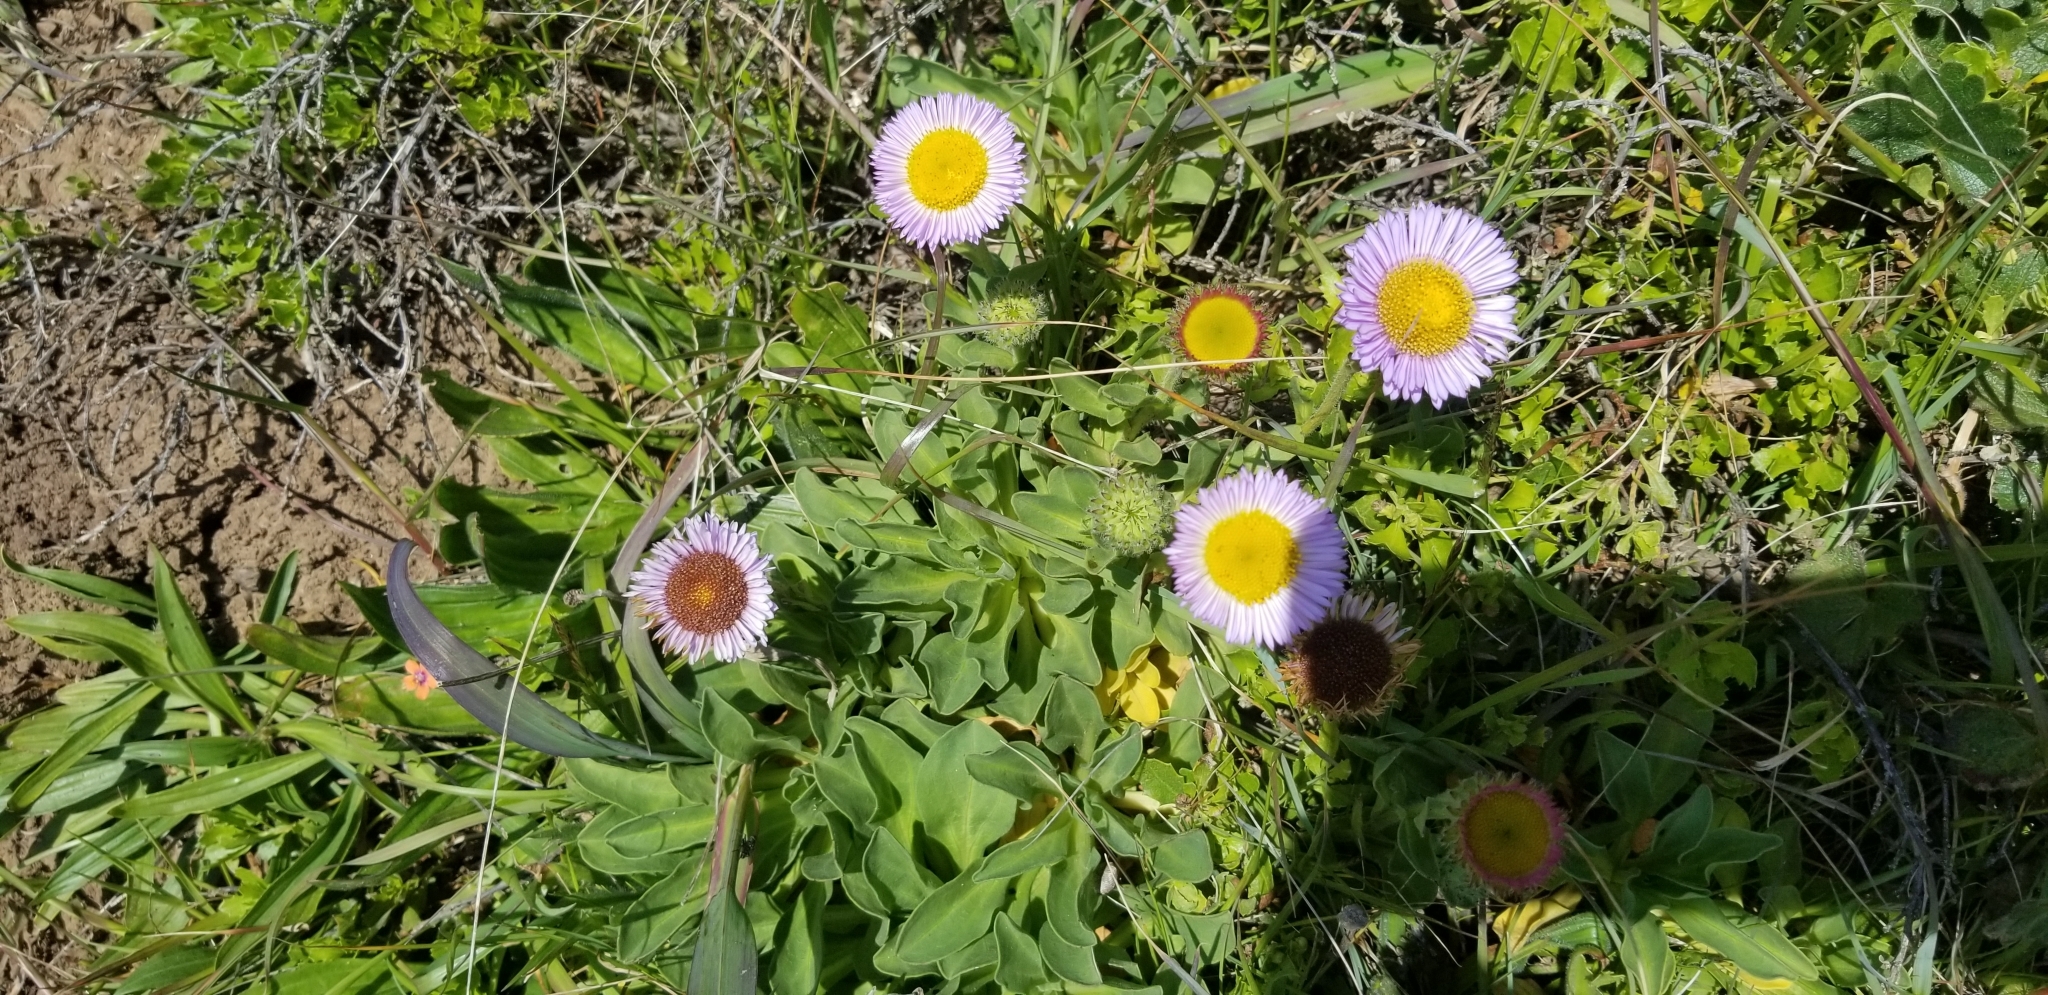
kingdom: Plantae
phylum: Tracheophyta
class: Magnoliopsida
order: Asterales
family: Asteraceae
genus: Erigeron
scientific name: Erigeron glaucus
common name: Seaside daisy
